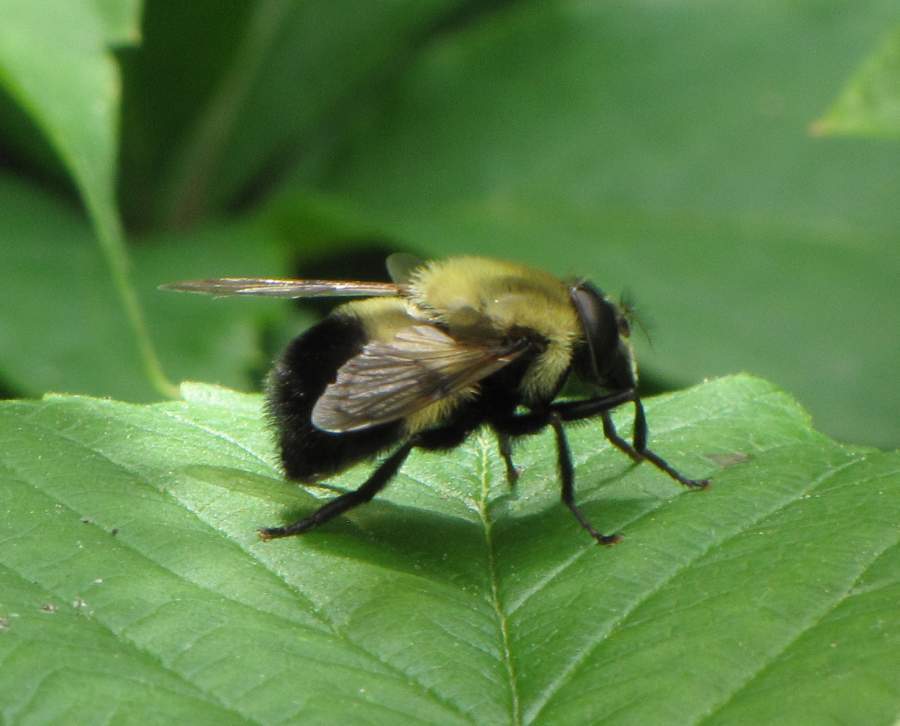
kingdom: Animalia
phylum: Arthropoda
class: Insecta
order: Diptera
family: Syrphidae
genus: Volucella
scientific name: Volucella evecta
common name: Eastern swiftwing
